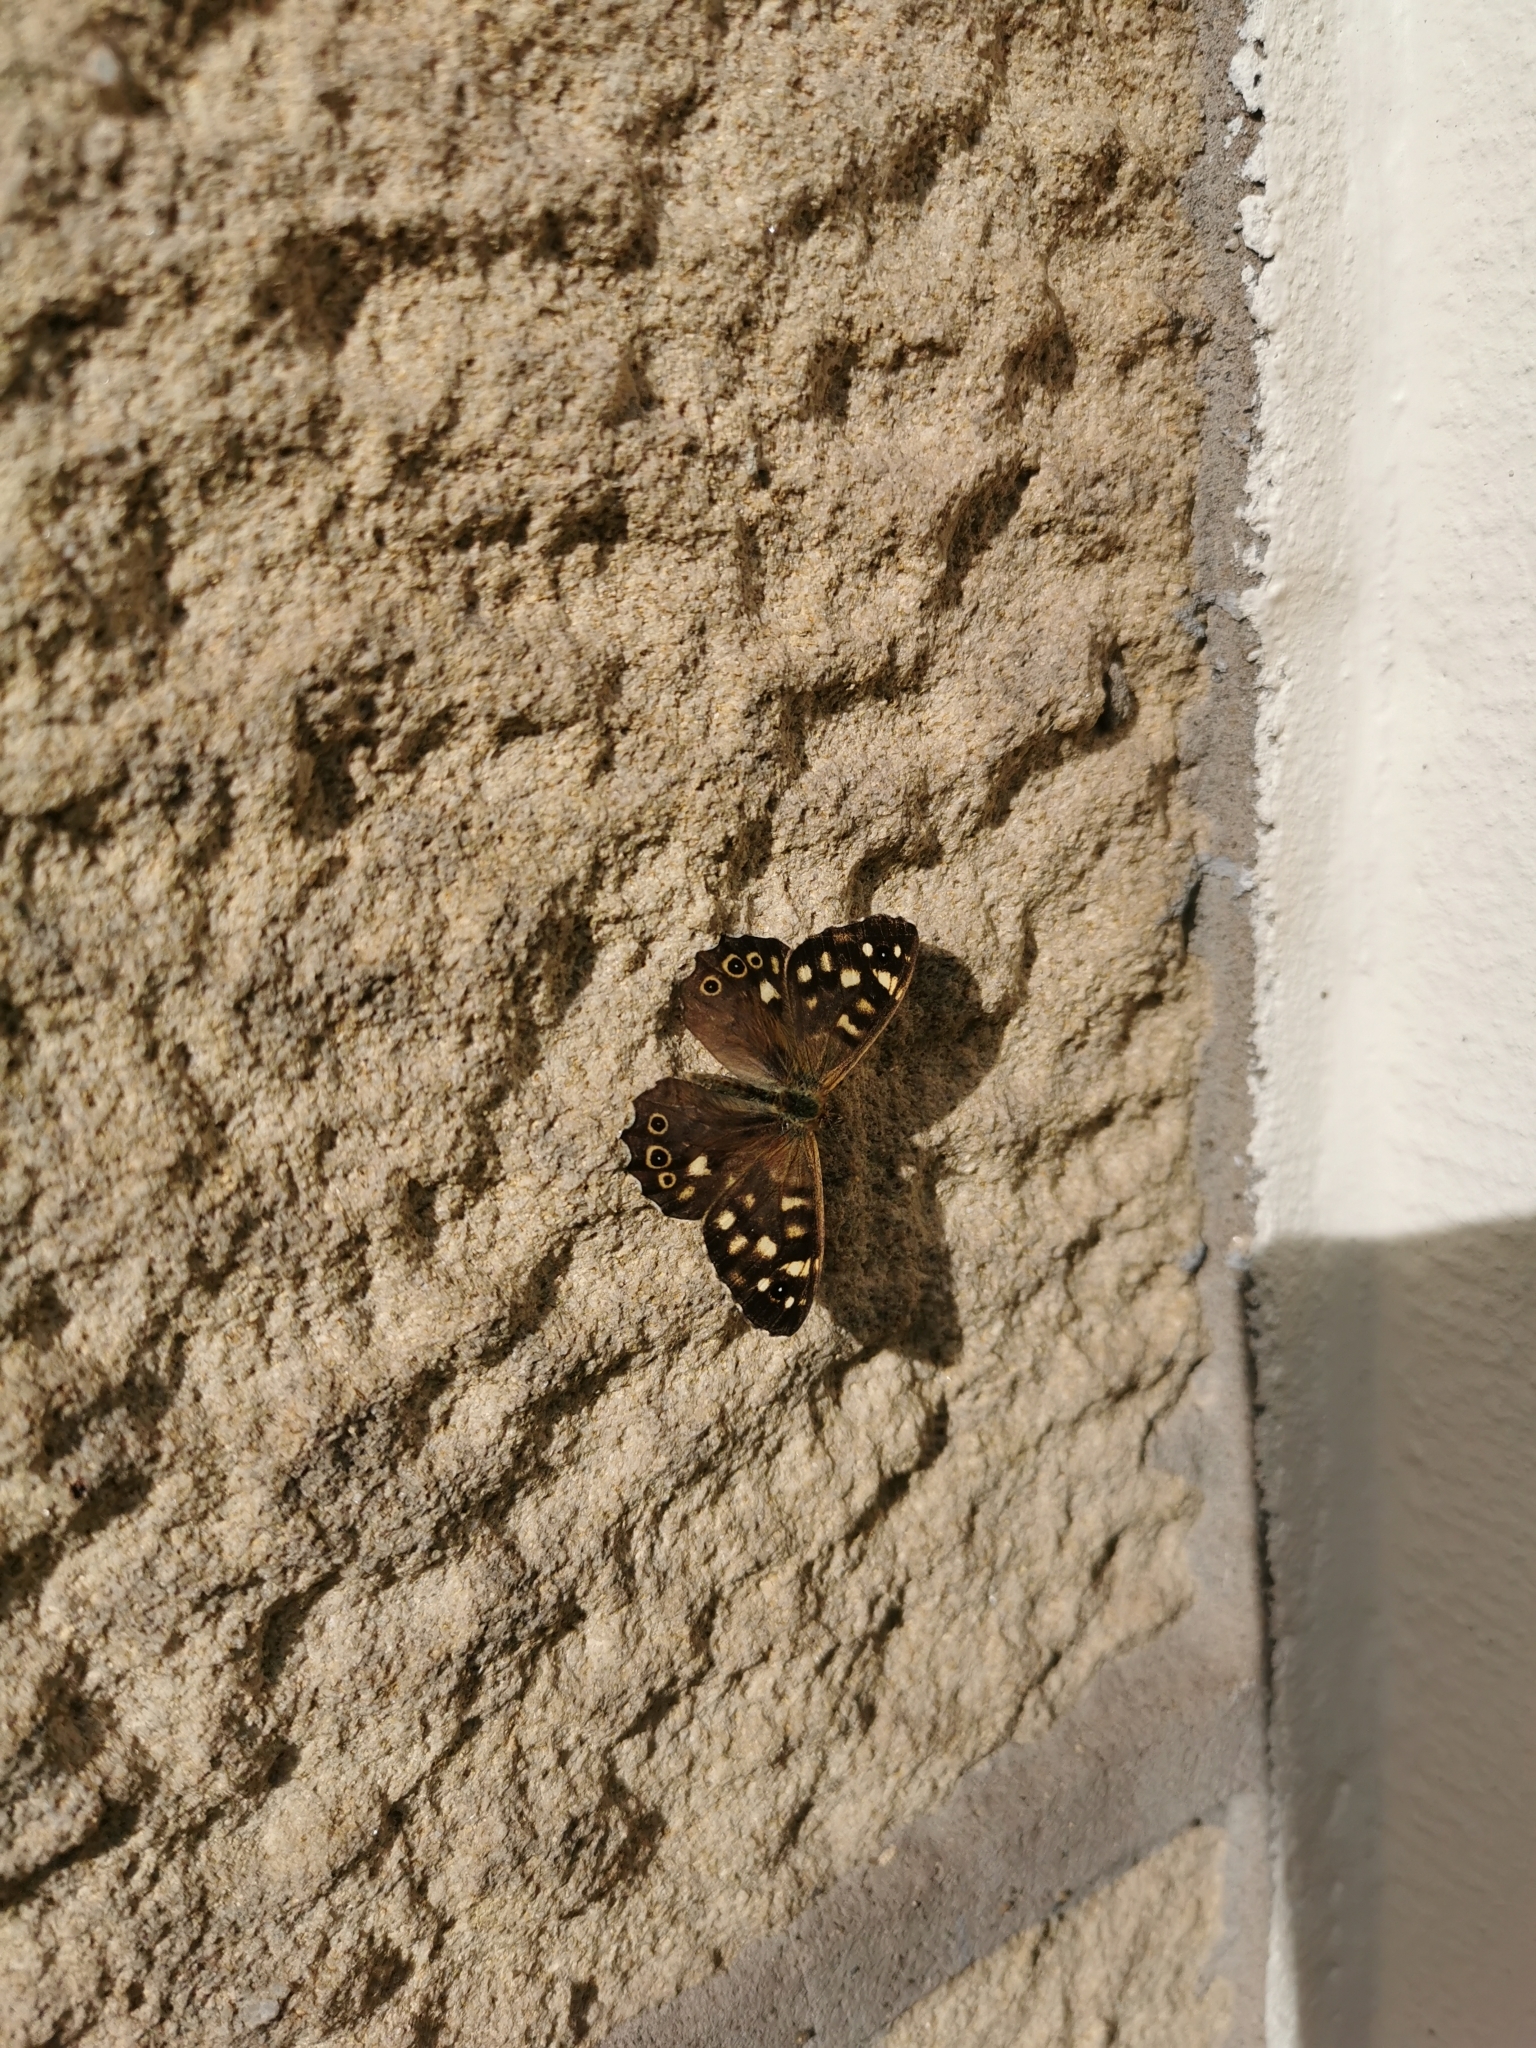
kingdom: Animalia
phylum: Arthropoda
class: Insecta
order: Lepidoptera
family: Nymphalidae
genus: Pararge
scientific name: Pararge aegeria
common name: Speckled wood
